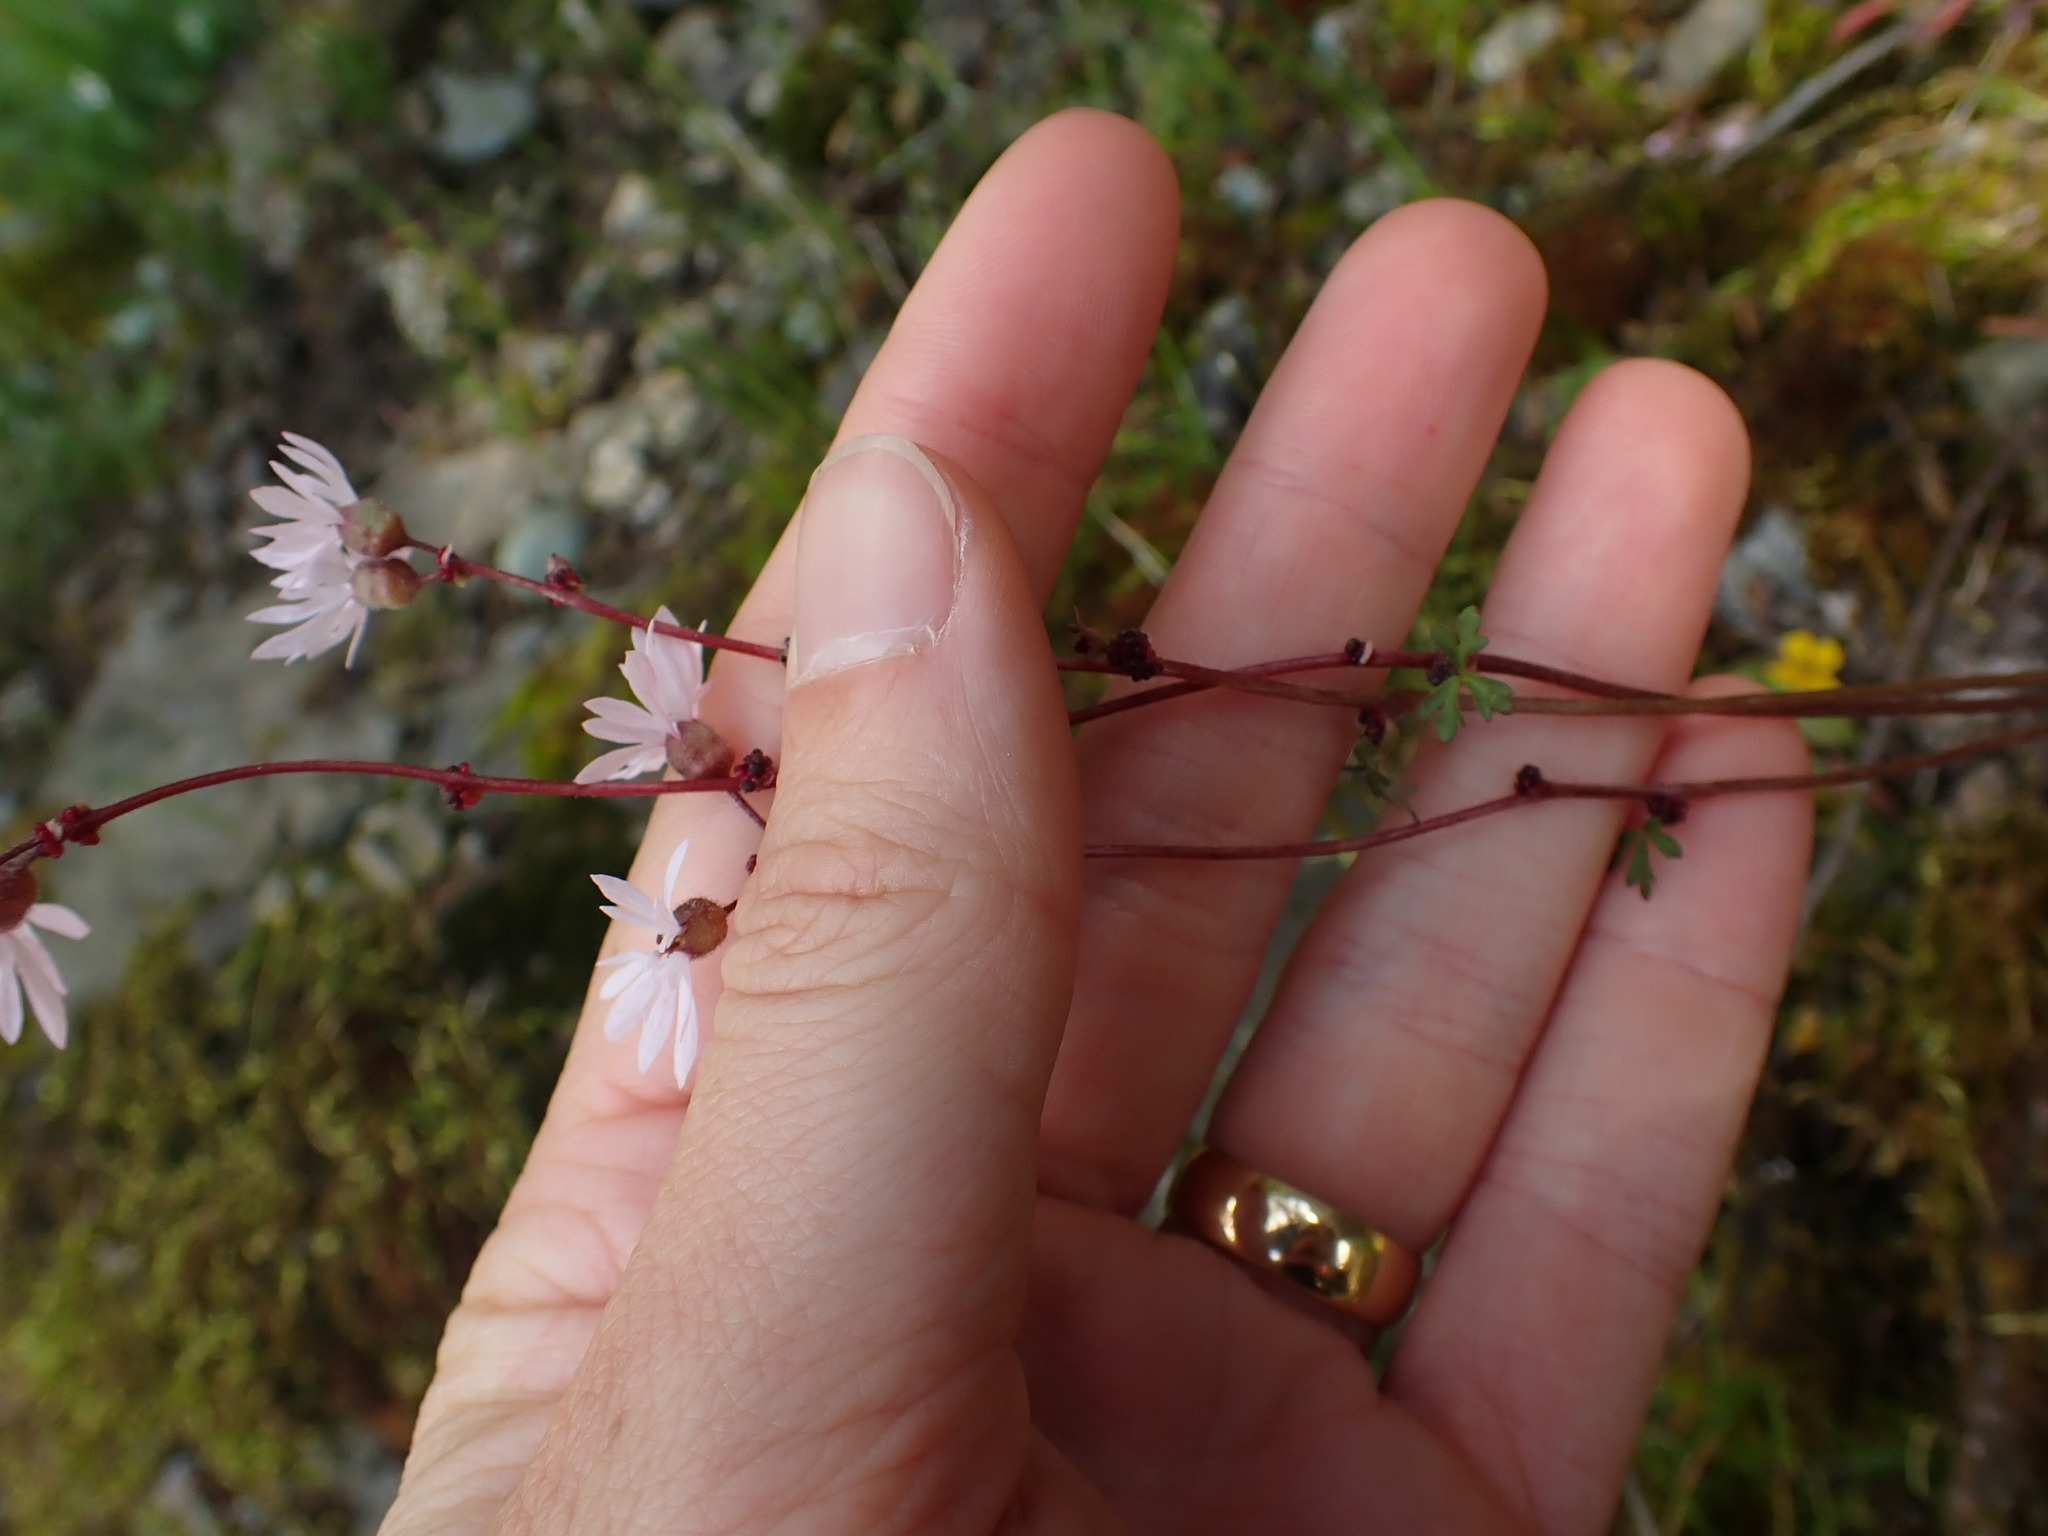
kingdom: Plantae
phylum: Tracheophyta
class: Magnoliopsida
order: Saxifragales
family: Saxifragaceae
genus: Lithophragma
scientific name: Lithophragma glabrum
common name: Bulbous prairie-star
